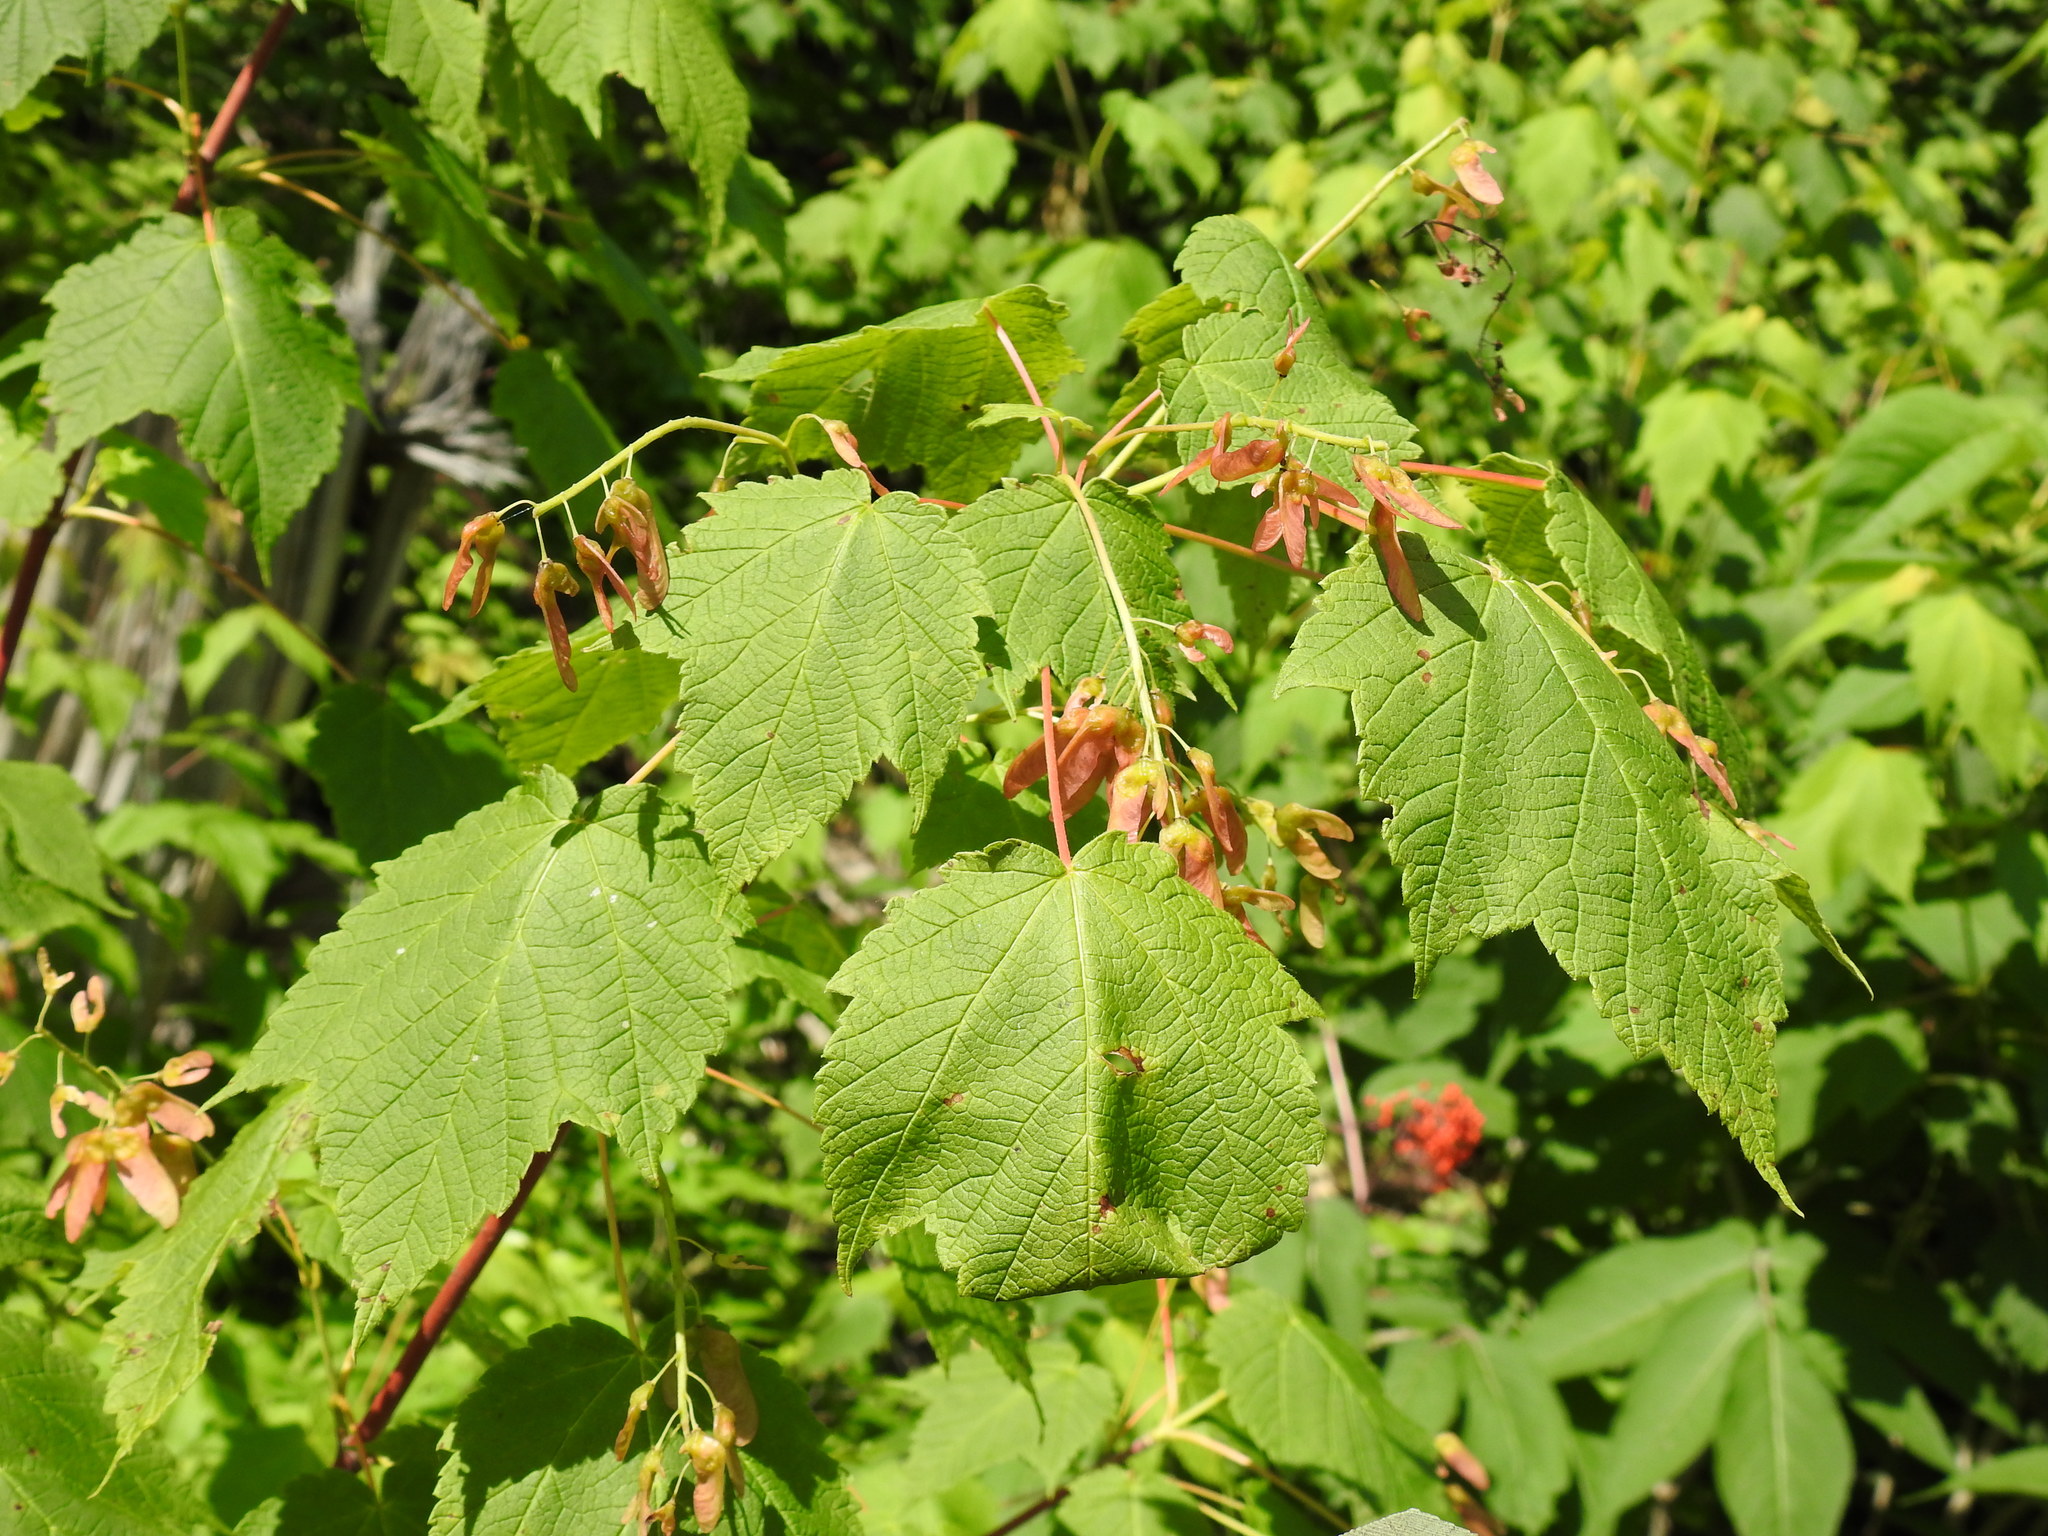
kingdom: Plantae
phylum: Tracheophyta
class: Magnoliopsida
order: Sapindales
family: Sapindaceae
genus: Acer
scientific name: Acer spicatum
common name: Mountain maple
